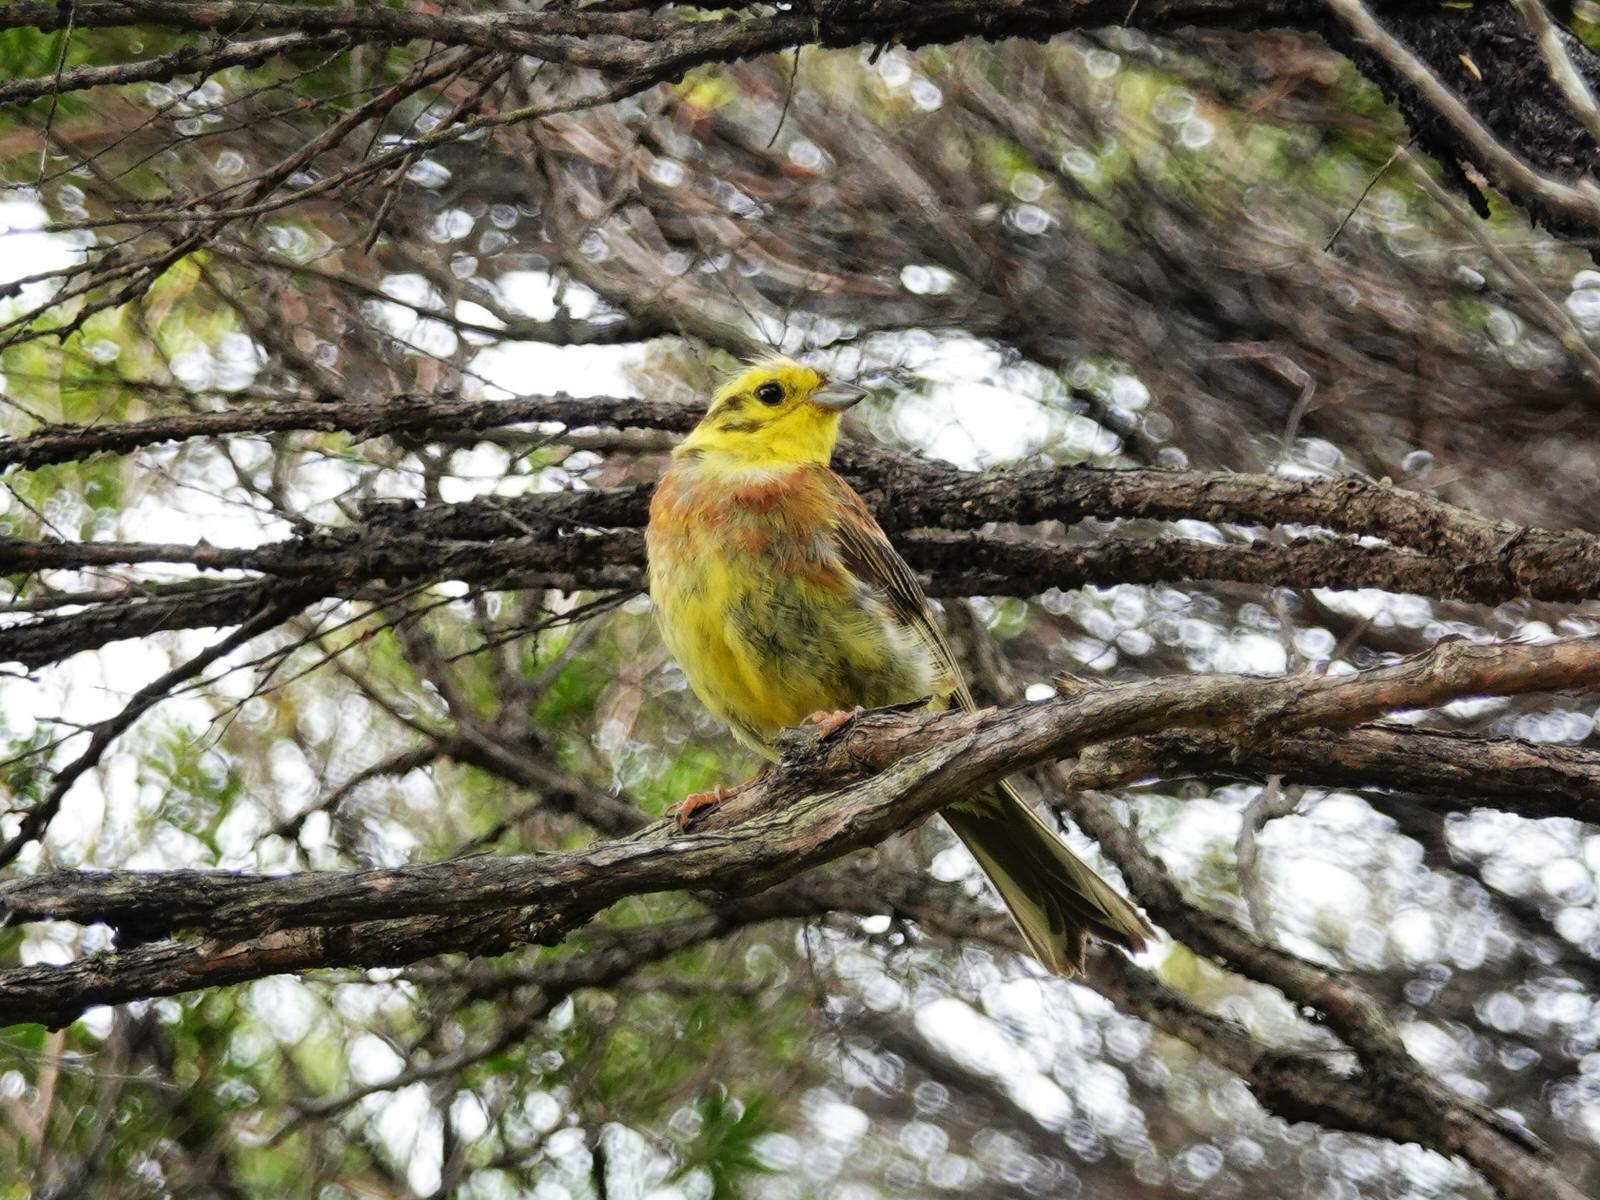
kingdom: Animalia
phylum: Chordata
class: Aves
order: Passeriformes
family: Emberizidae
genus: Emberiza
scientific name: Emberiza citrinella
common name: Yellowhammer
